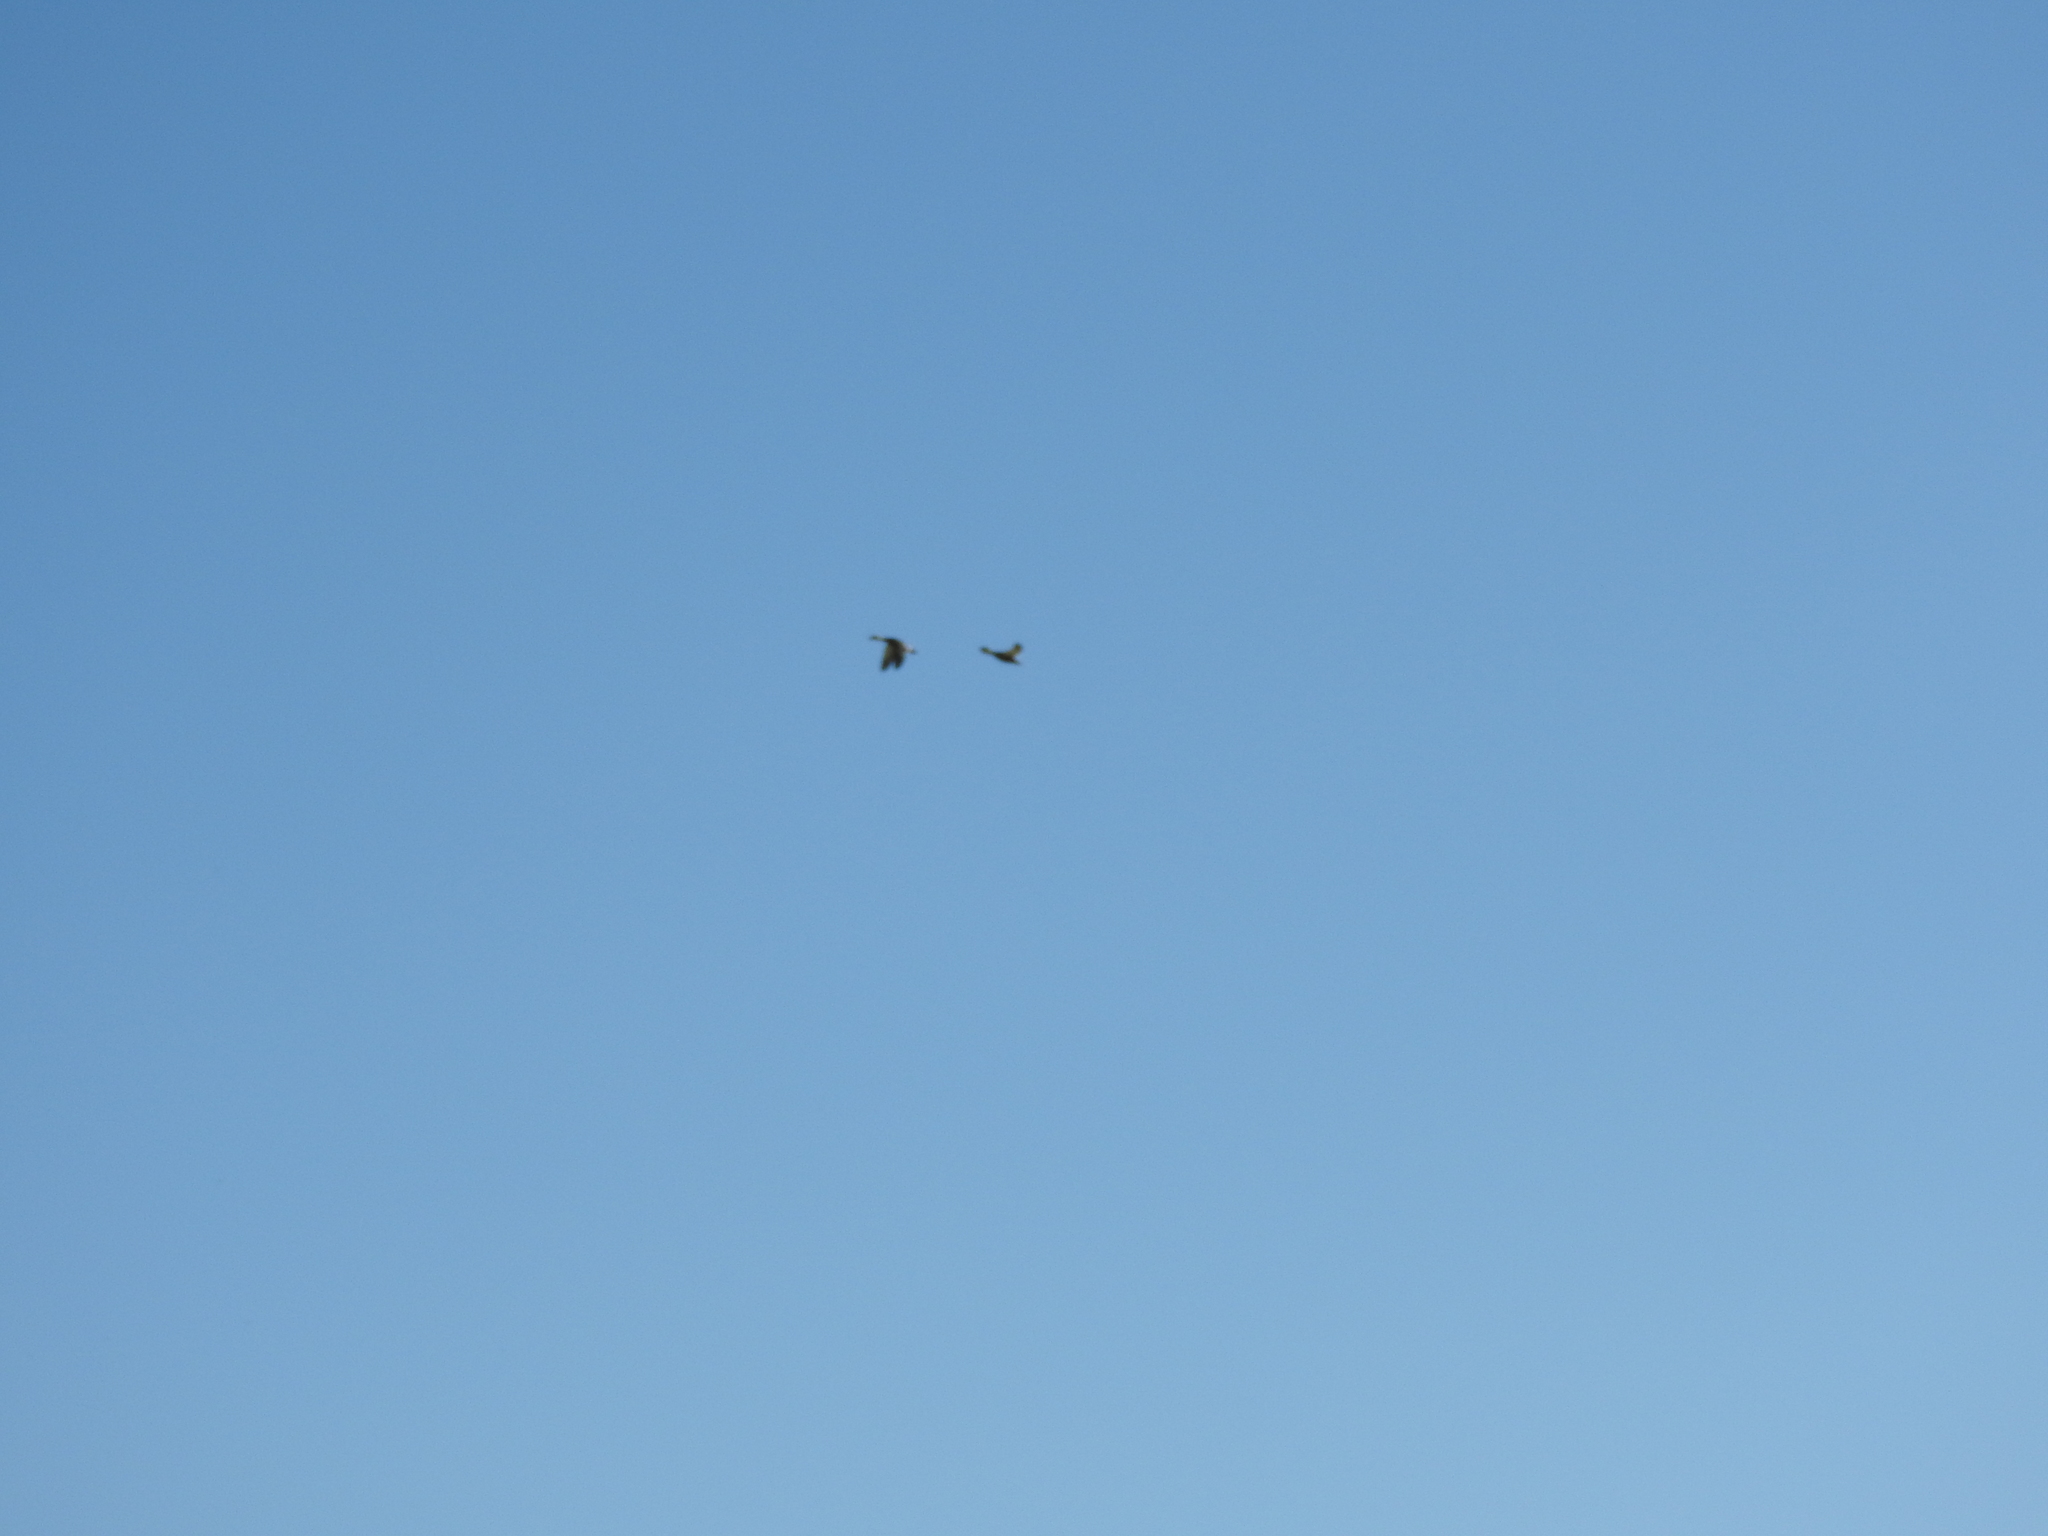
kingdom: Animalia
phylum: Chordata
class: Aves
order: Anseriformes
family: Anatidae
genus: Anas
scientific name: Anas diazi
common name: Mexican duck
